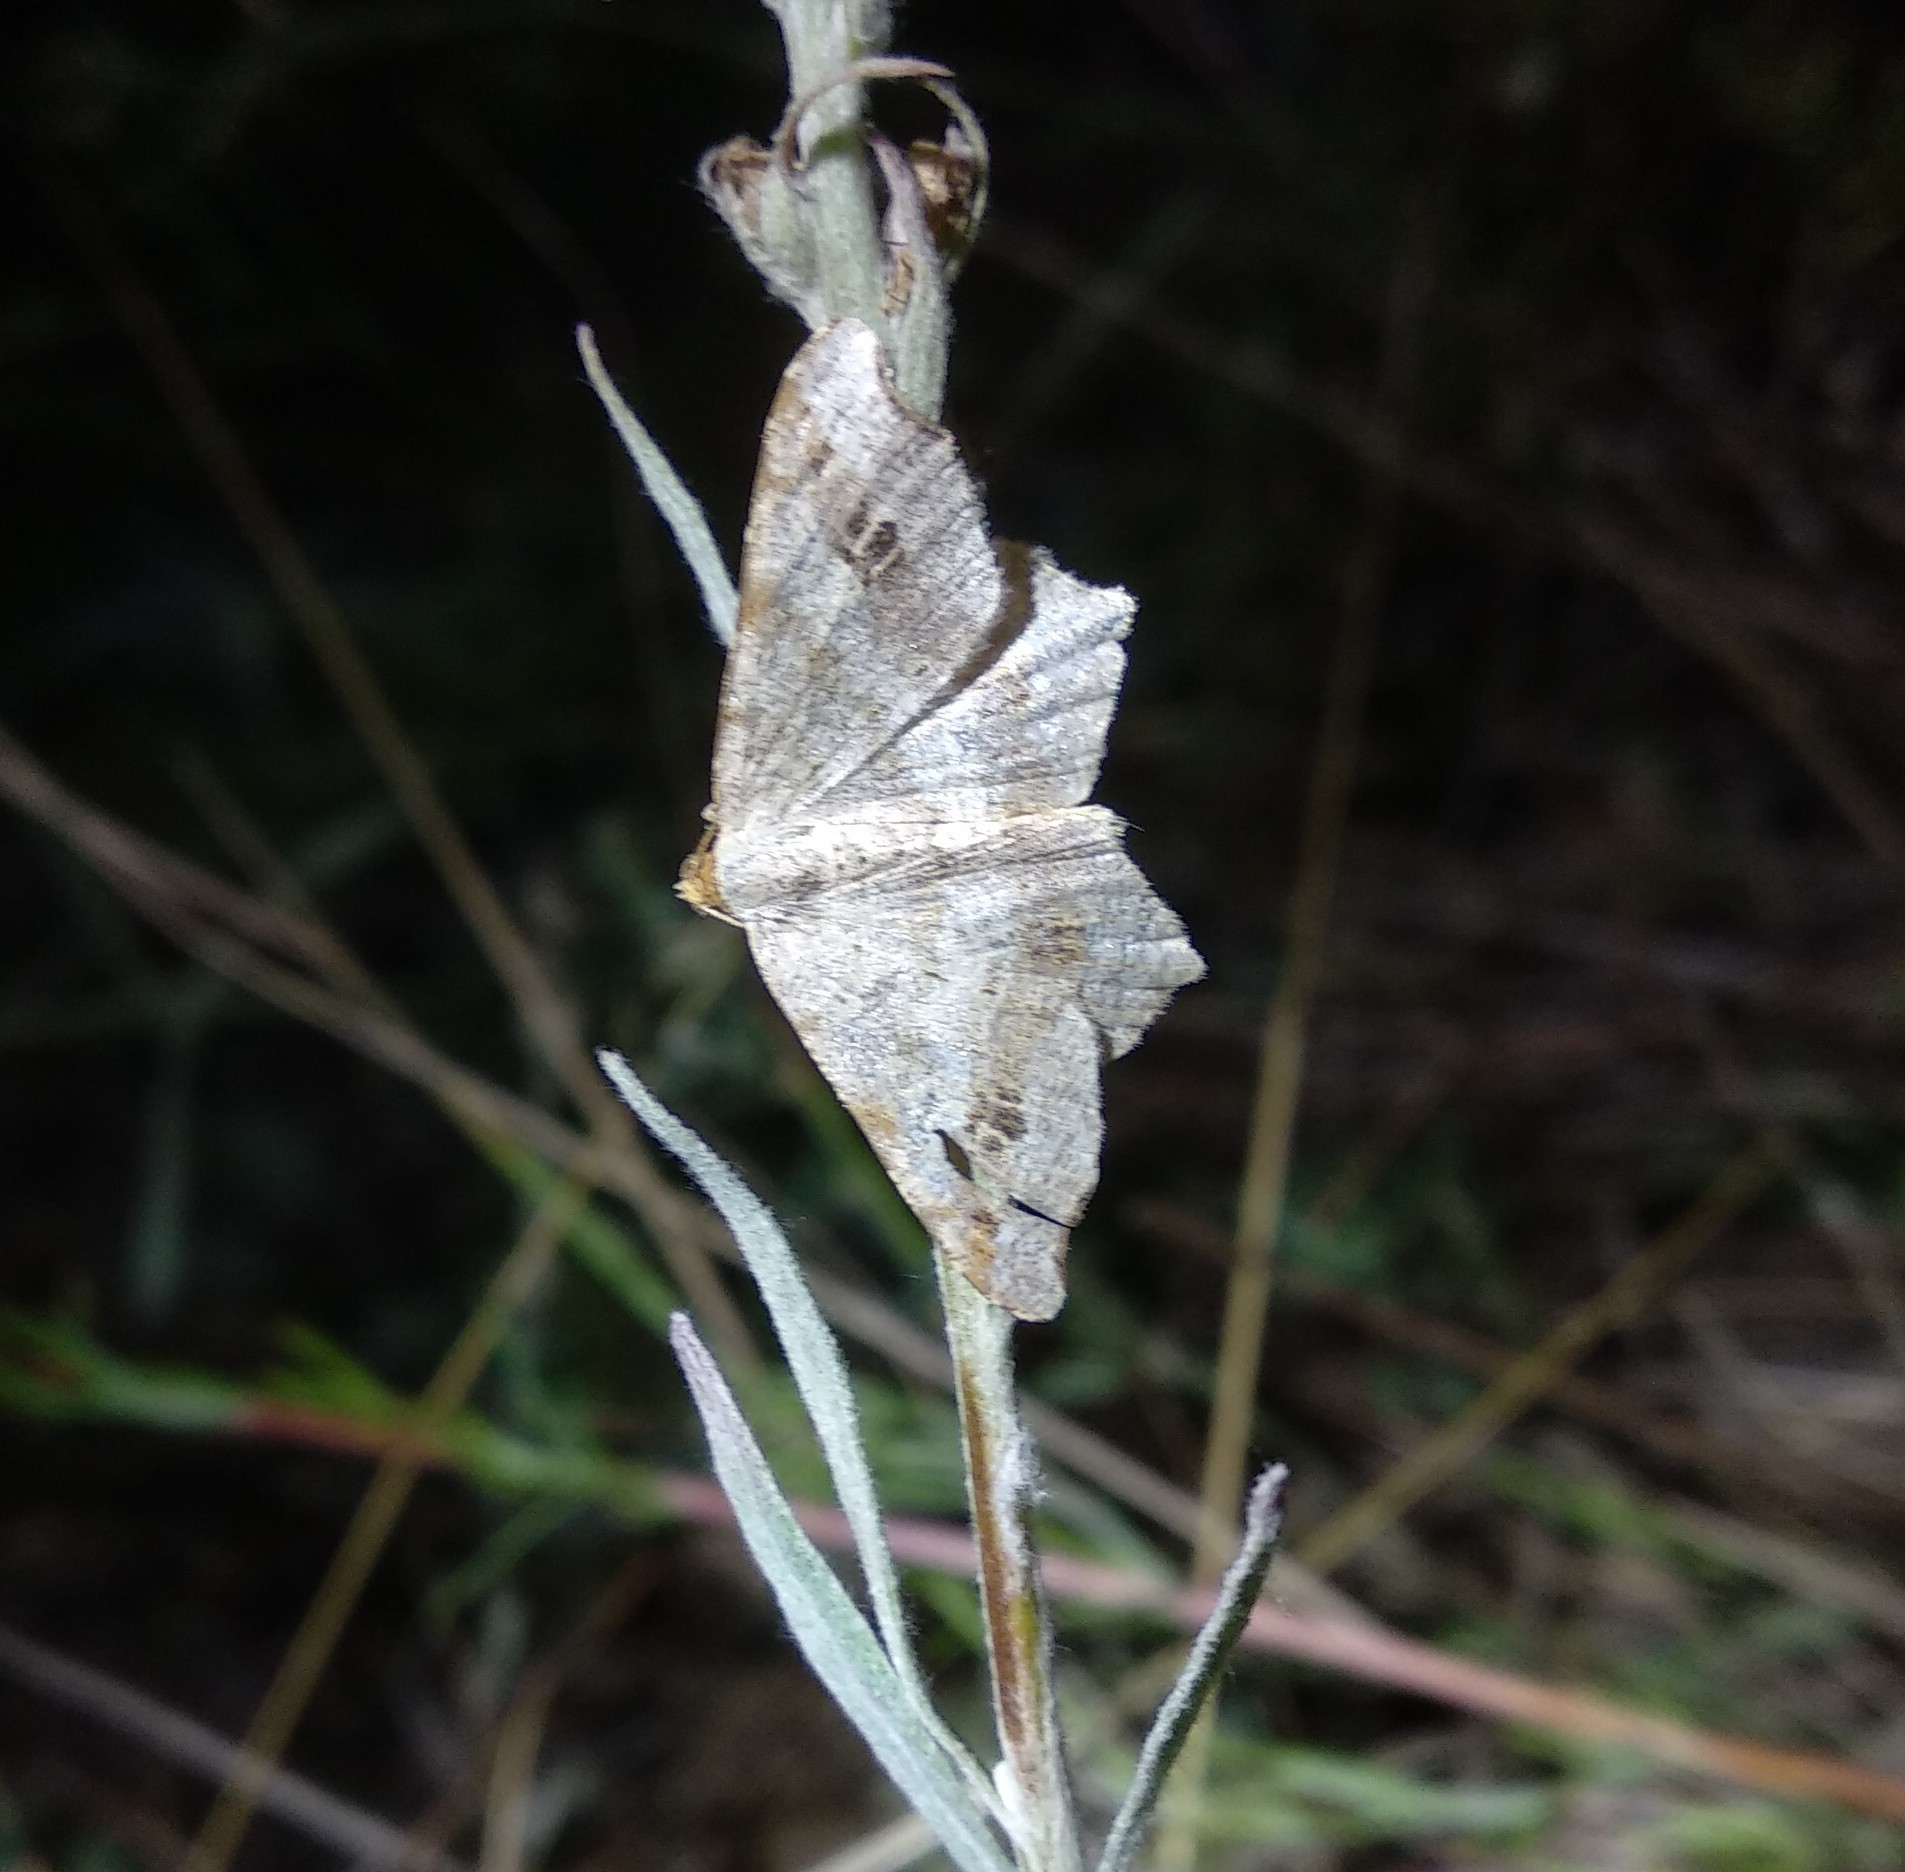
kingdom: Animalia
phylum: Arthropoda
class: Insecta
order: Lepidoptera
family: Geometridae
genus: Macaria
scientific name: Macaria alternata
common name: Sharp-angled peacock
